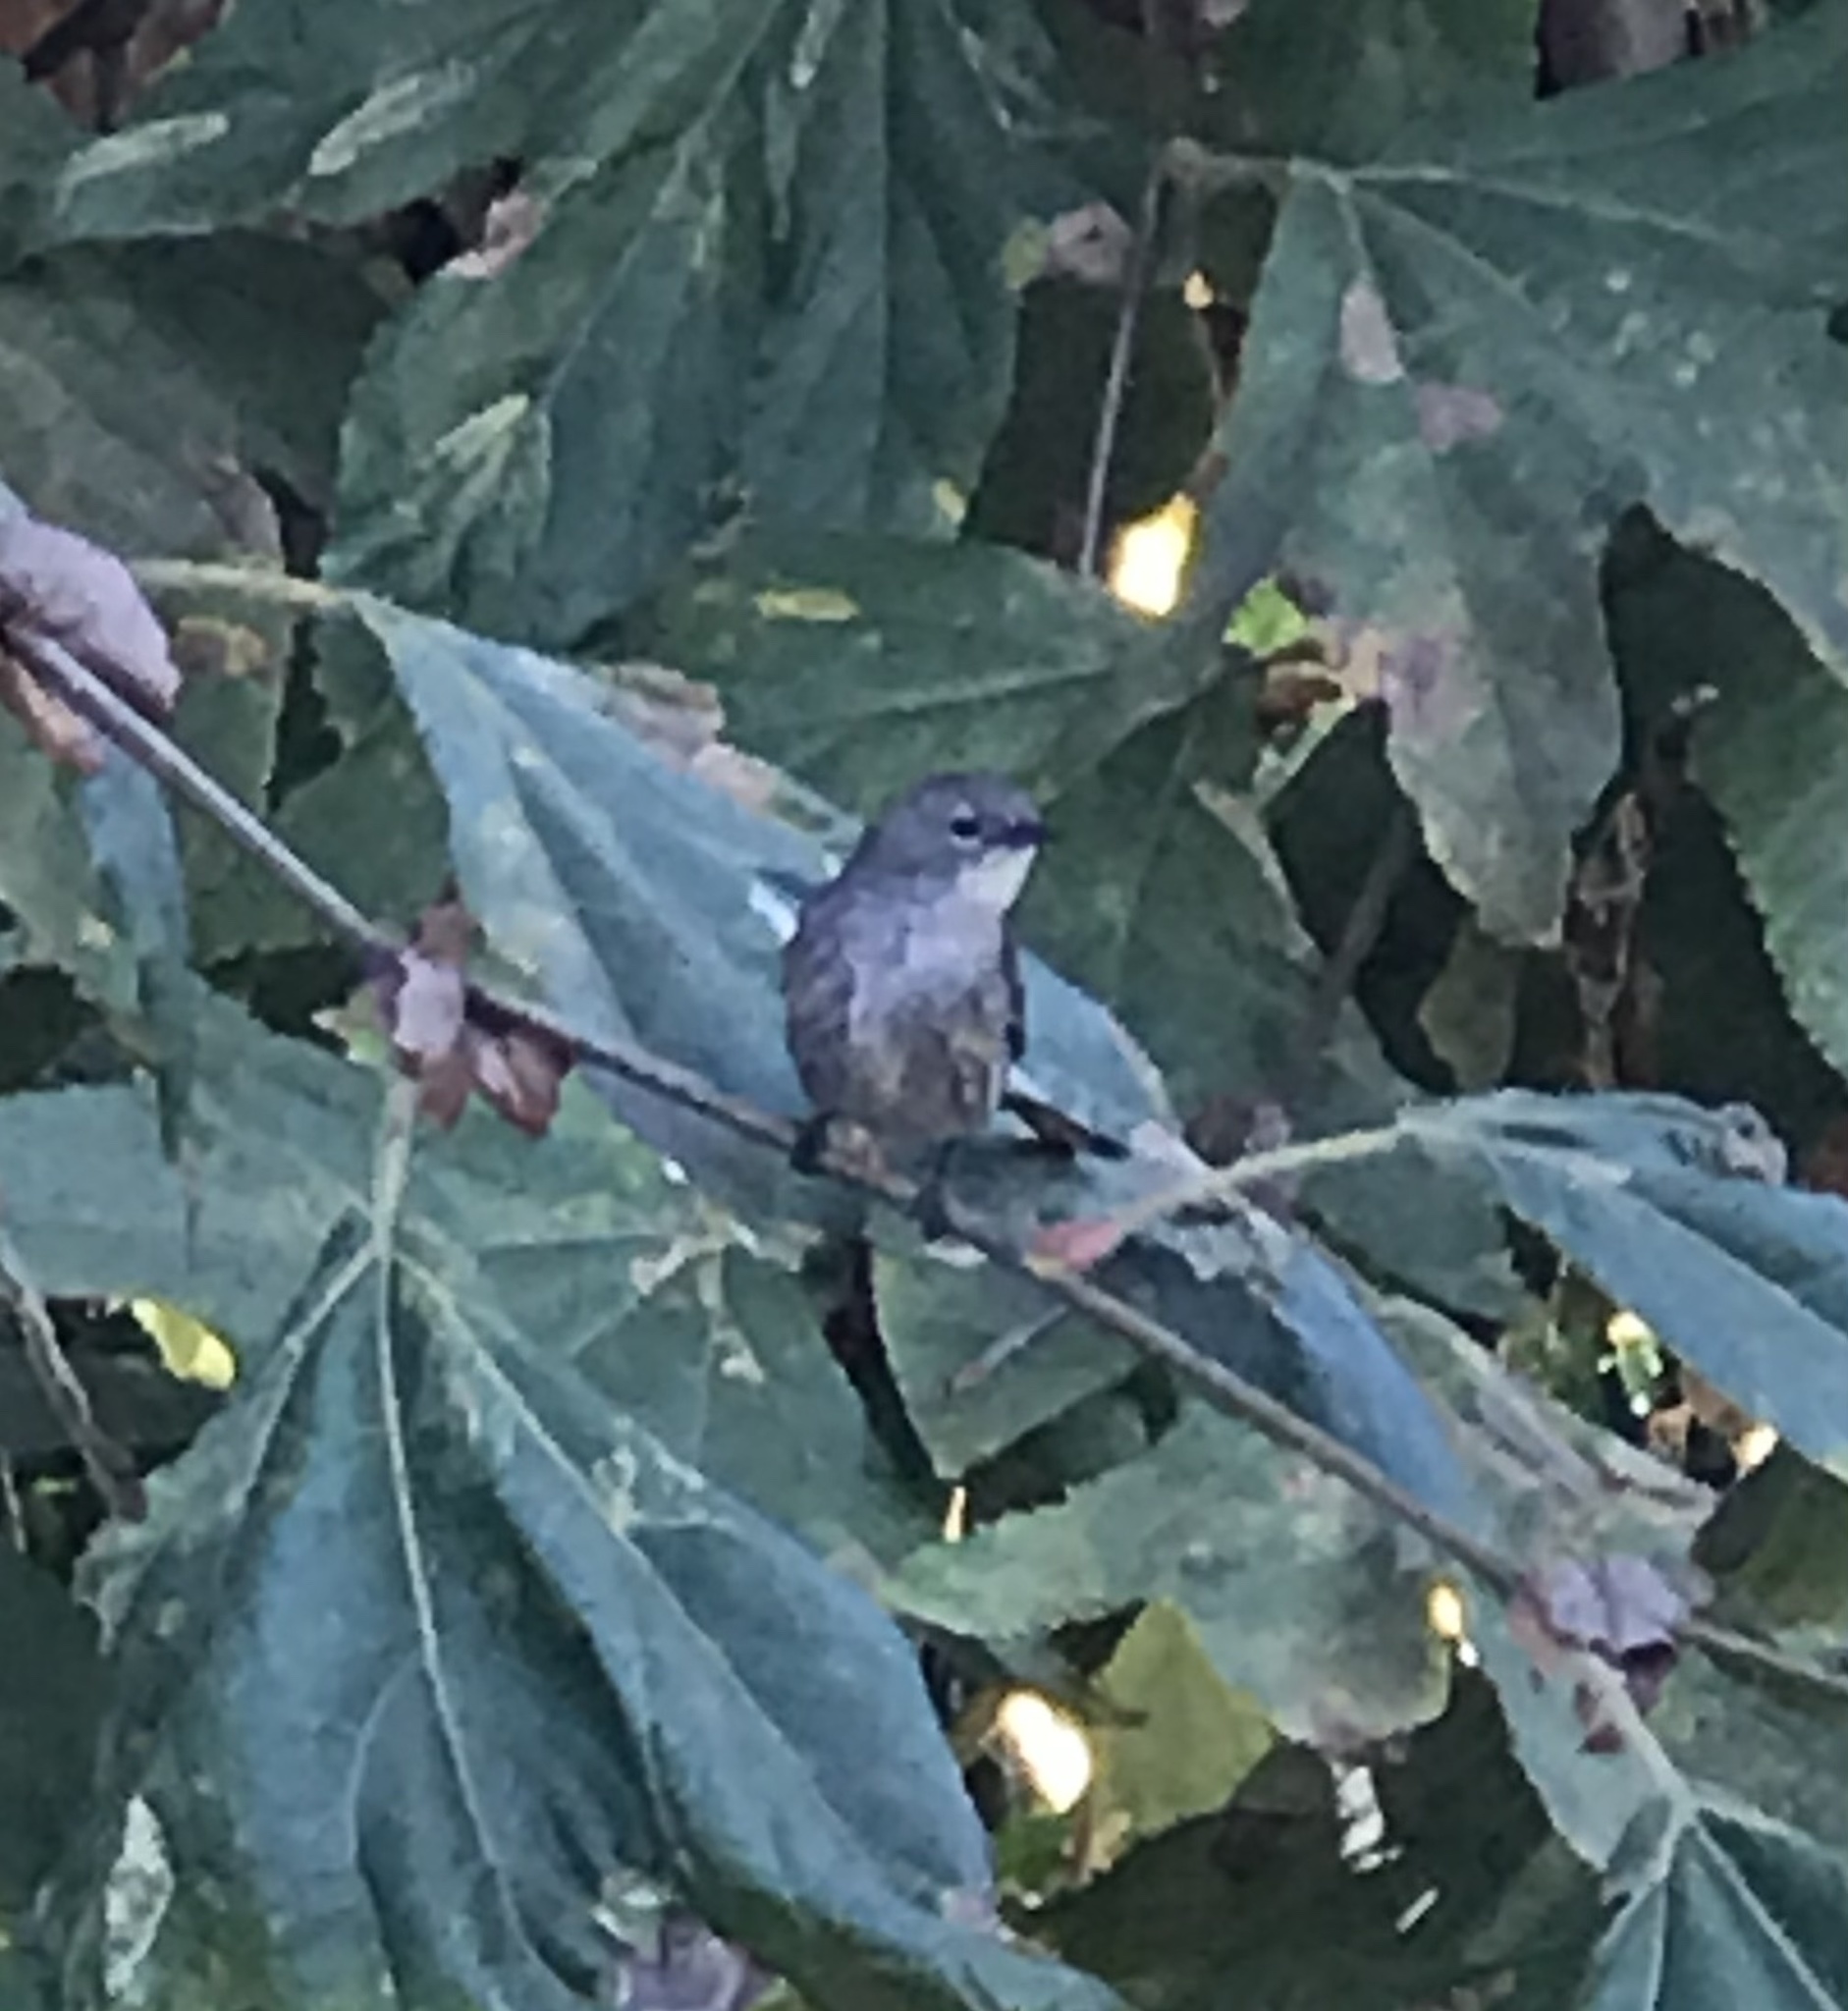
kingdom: Animalia
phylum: Chordata
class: Aves
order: Passeriformes
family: Parulidae
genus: Setophaga
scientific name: Setophaga coronata
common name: Myrtle warbler
